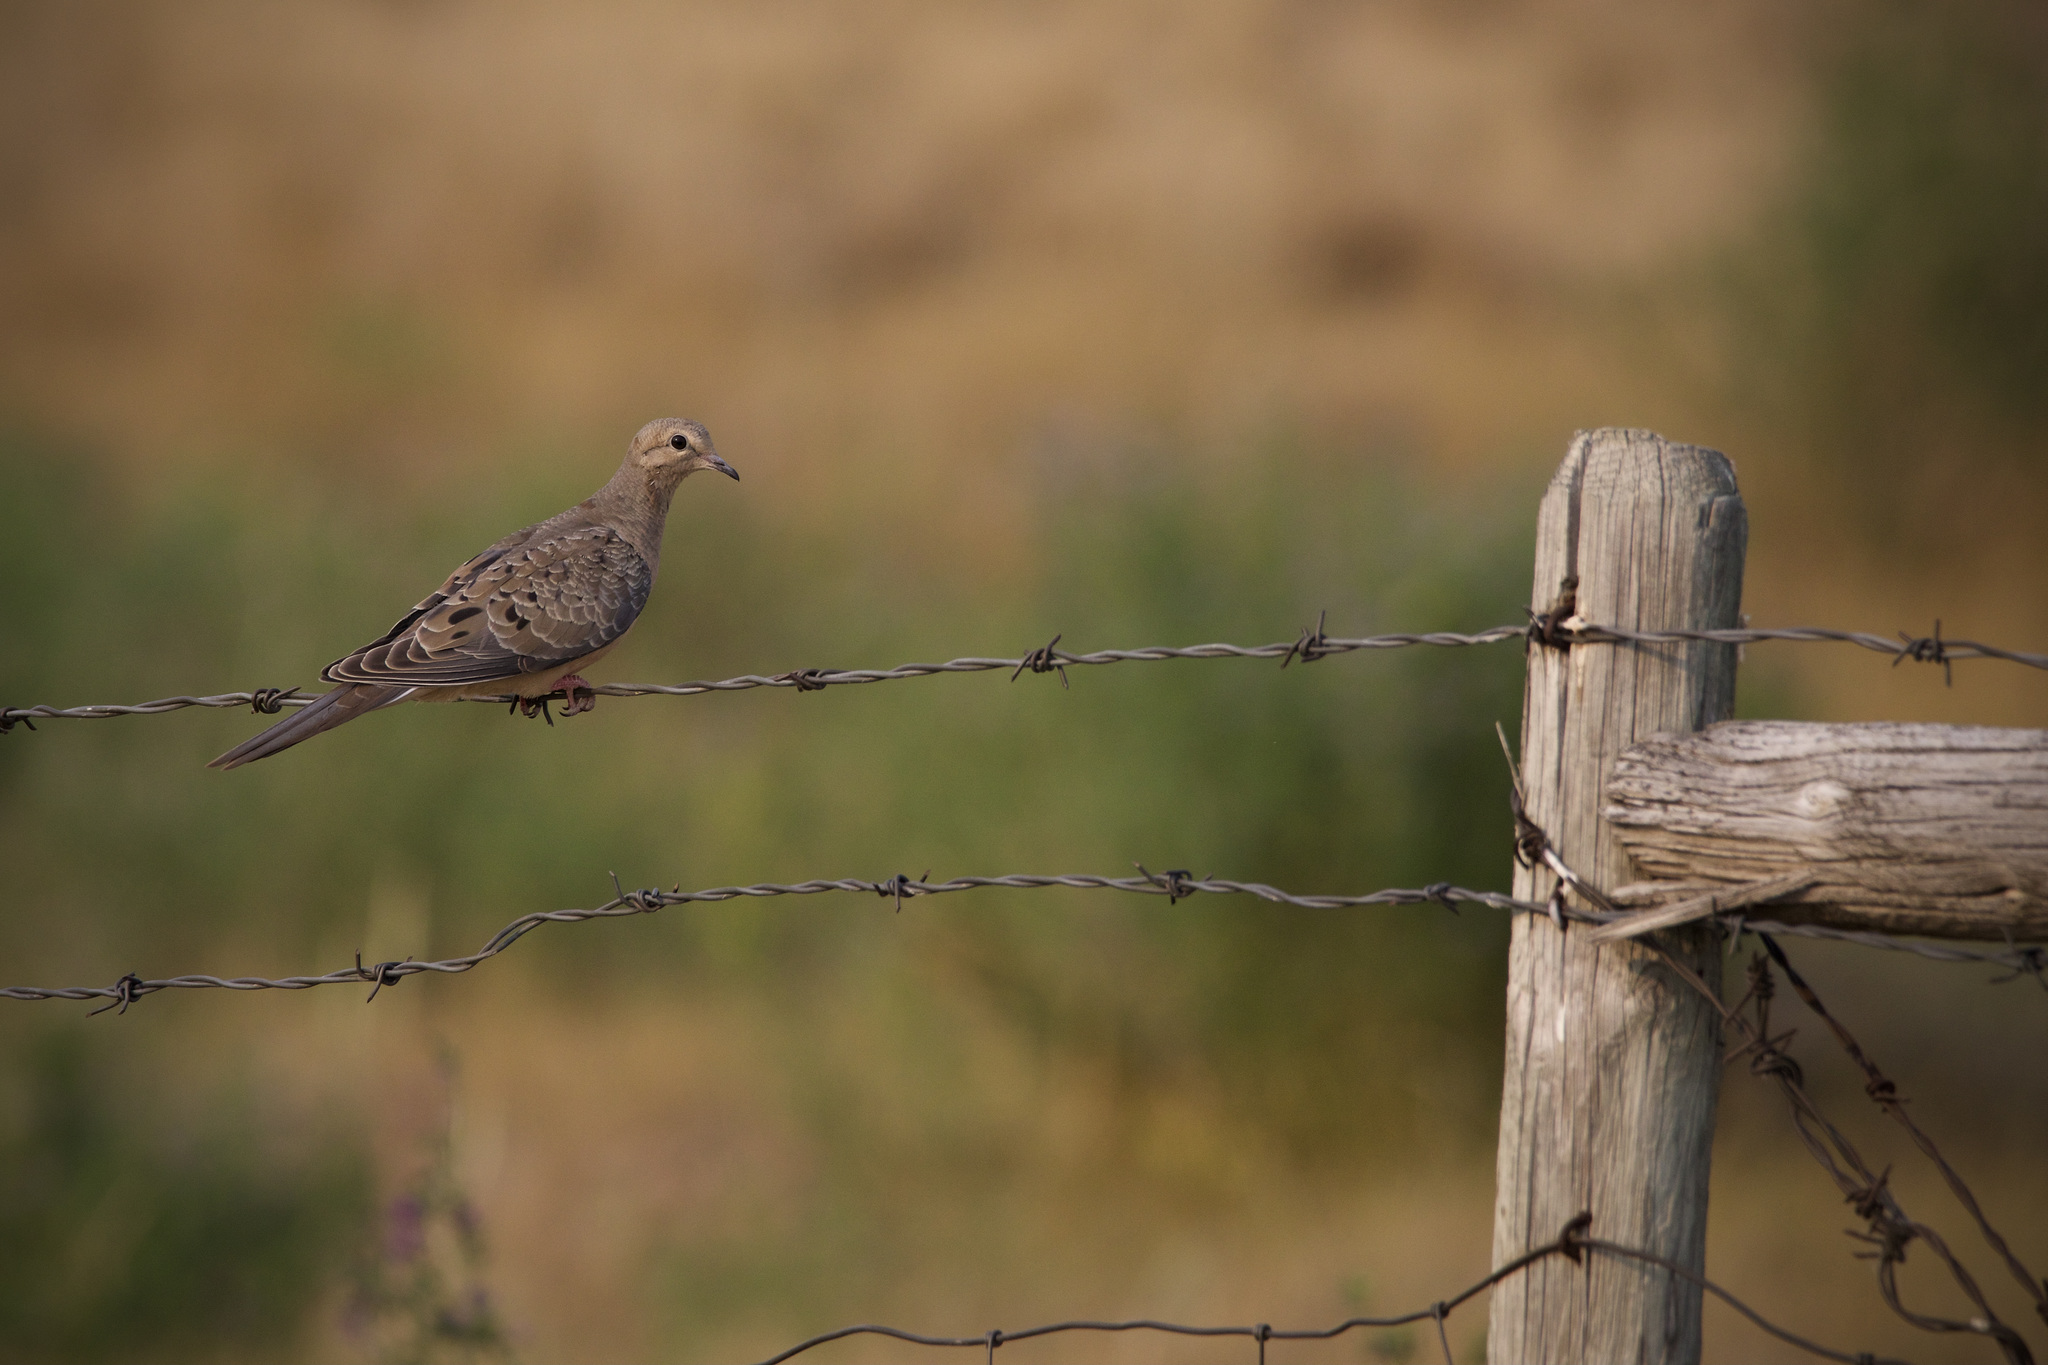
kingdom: Animalia
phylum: Chordata
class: Aves
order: Columbiformes
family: Columbidae
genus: Zenaida
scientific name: Zenaida macroura
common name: Mourning dove
